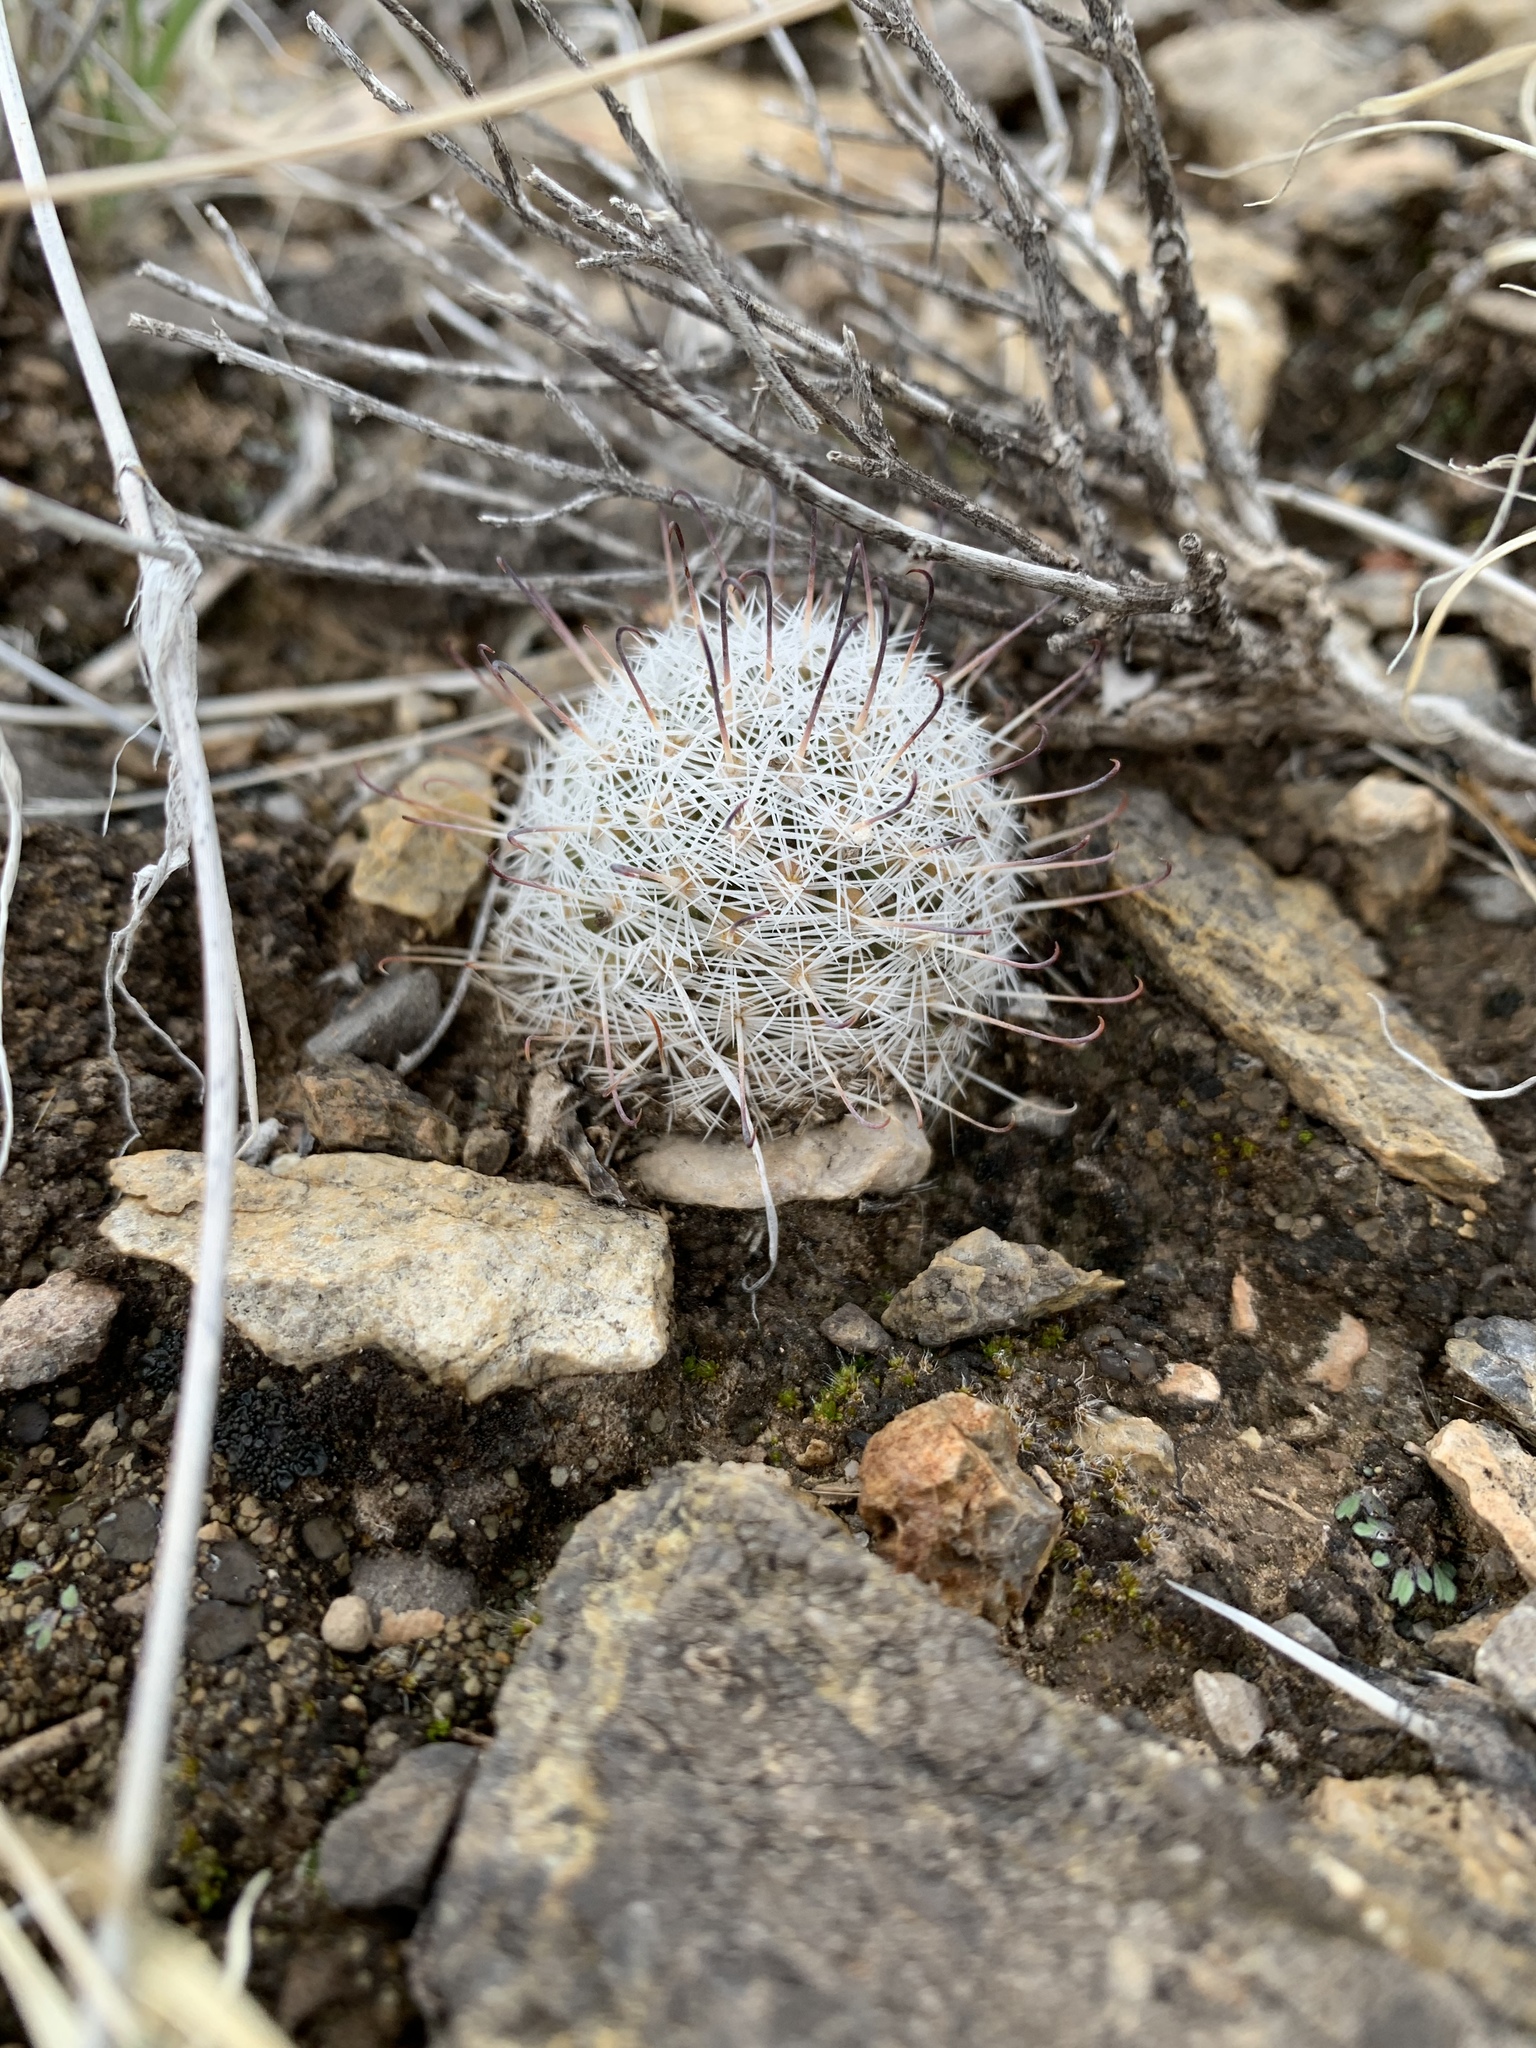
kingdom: Plantae
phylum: Tracheophyta
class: Magnoliopsida
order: Caryophyllales
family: Cactaceae
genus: Cochemiea
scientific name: Cochemiea grahamii
